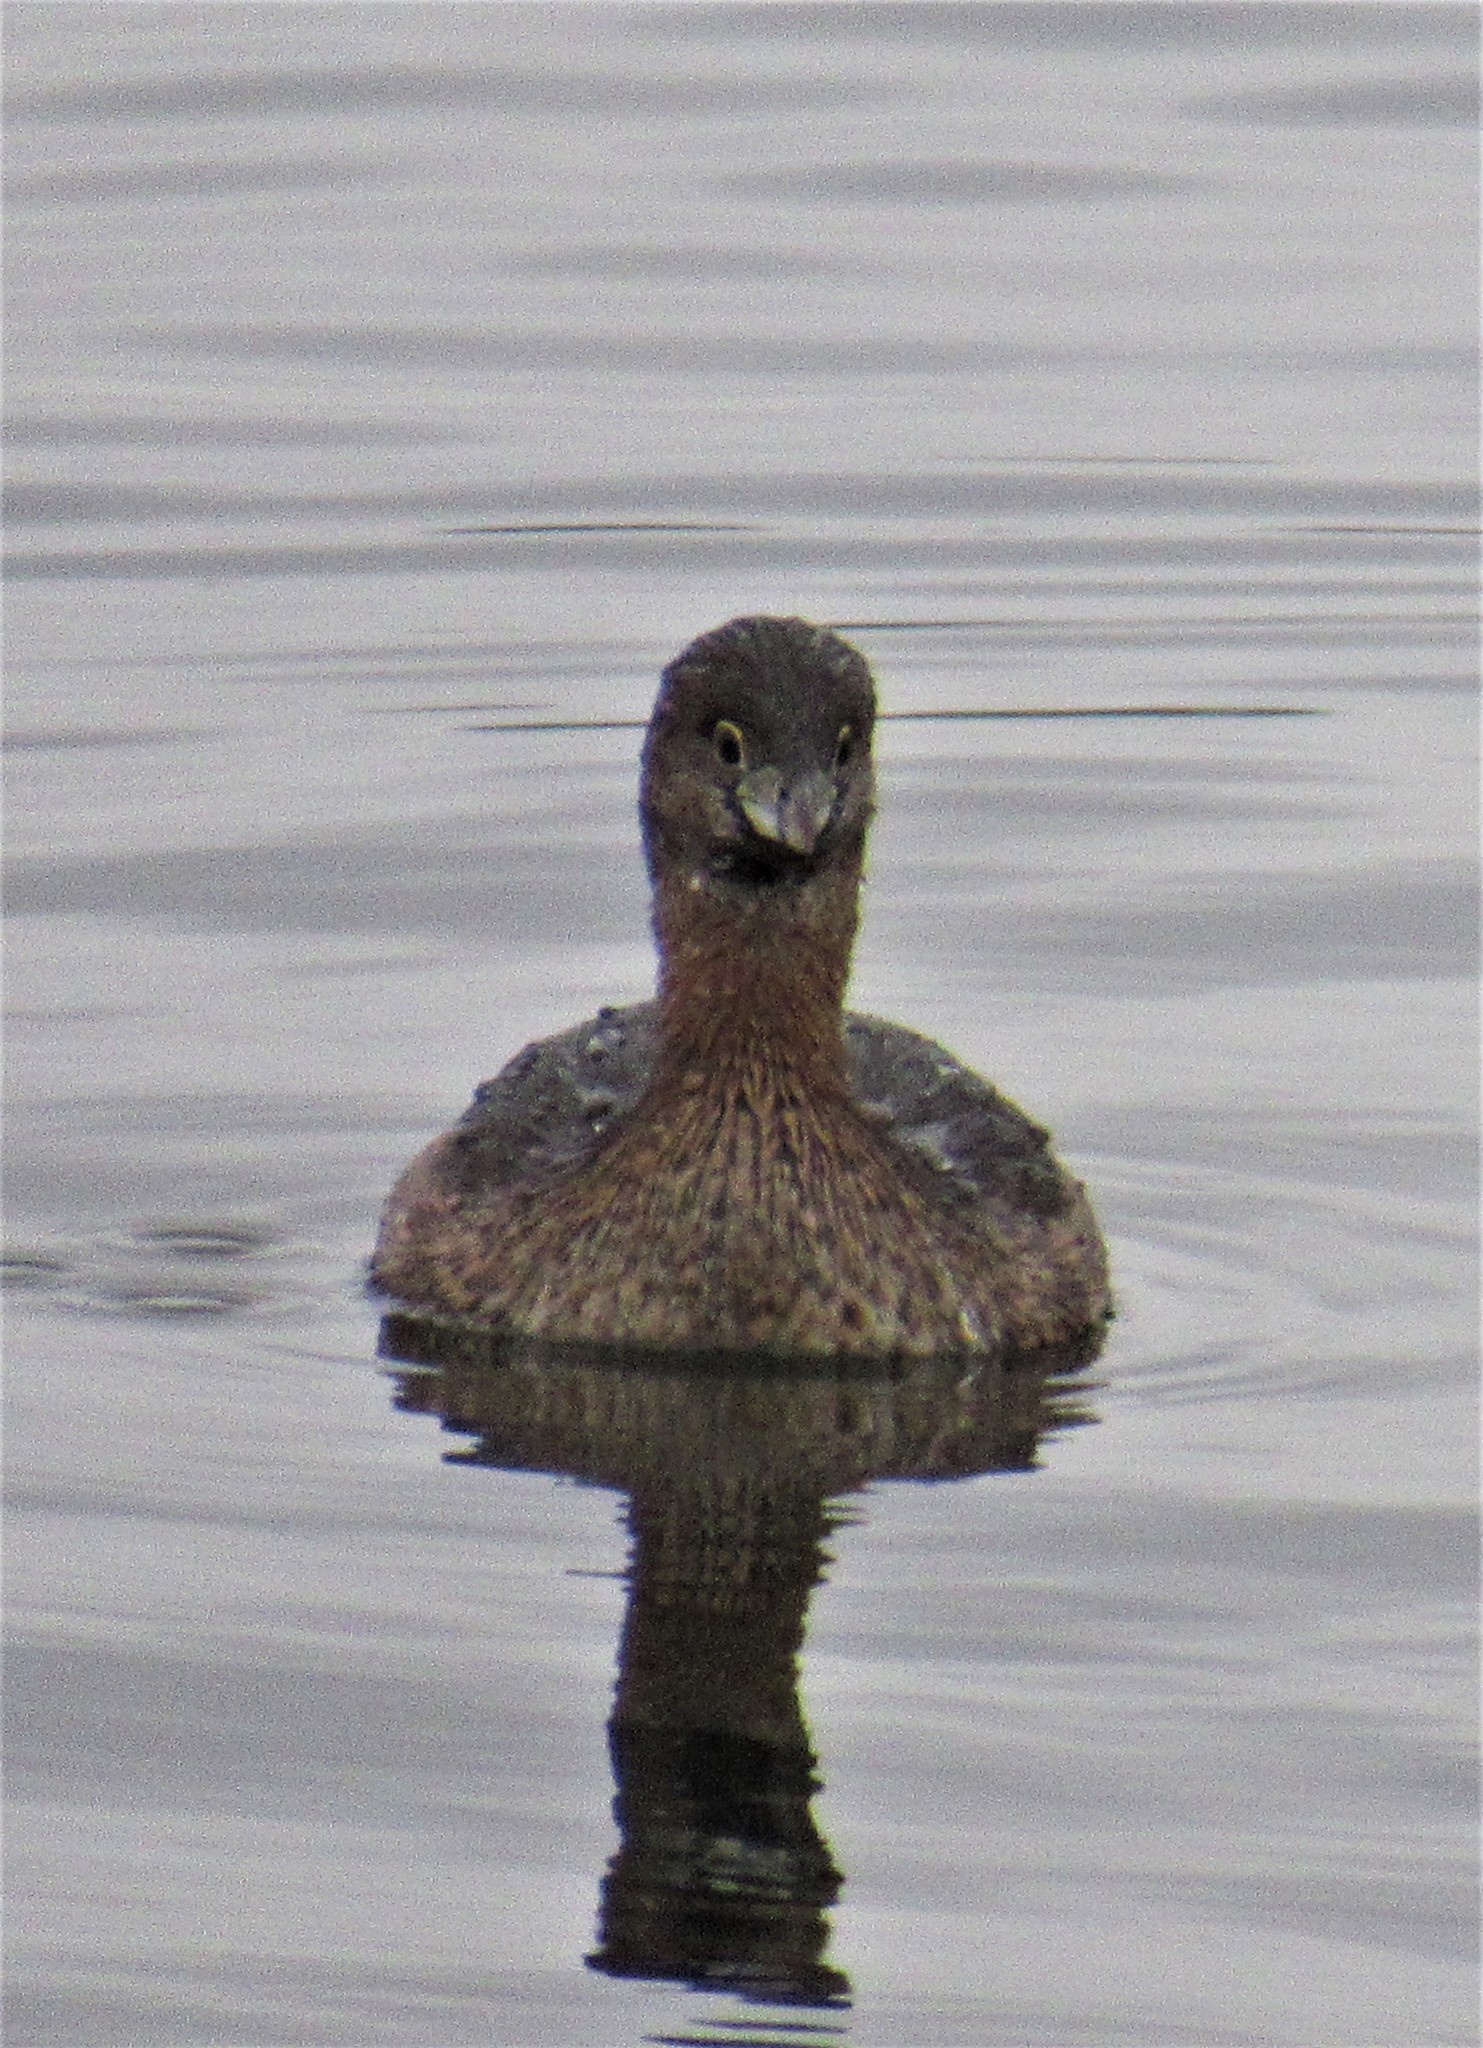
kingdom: Animalia
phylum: Chordata
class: Aves
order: Podicipediformes
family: Podicipedidae
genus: Podilymbus
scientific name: Podilymbus podiceps
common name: Pied-billed grebe
